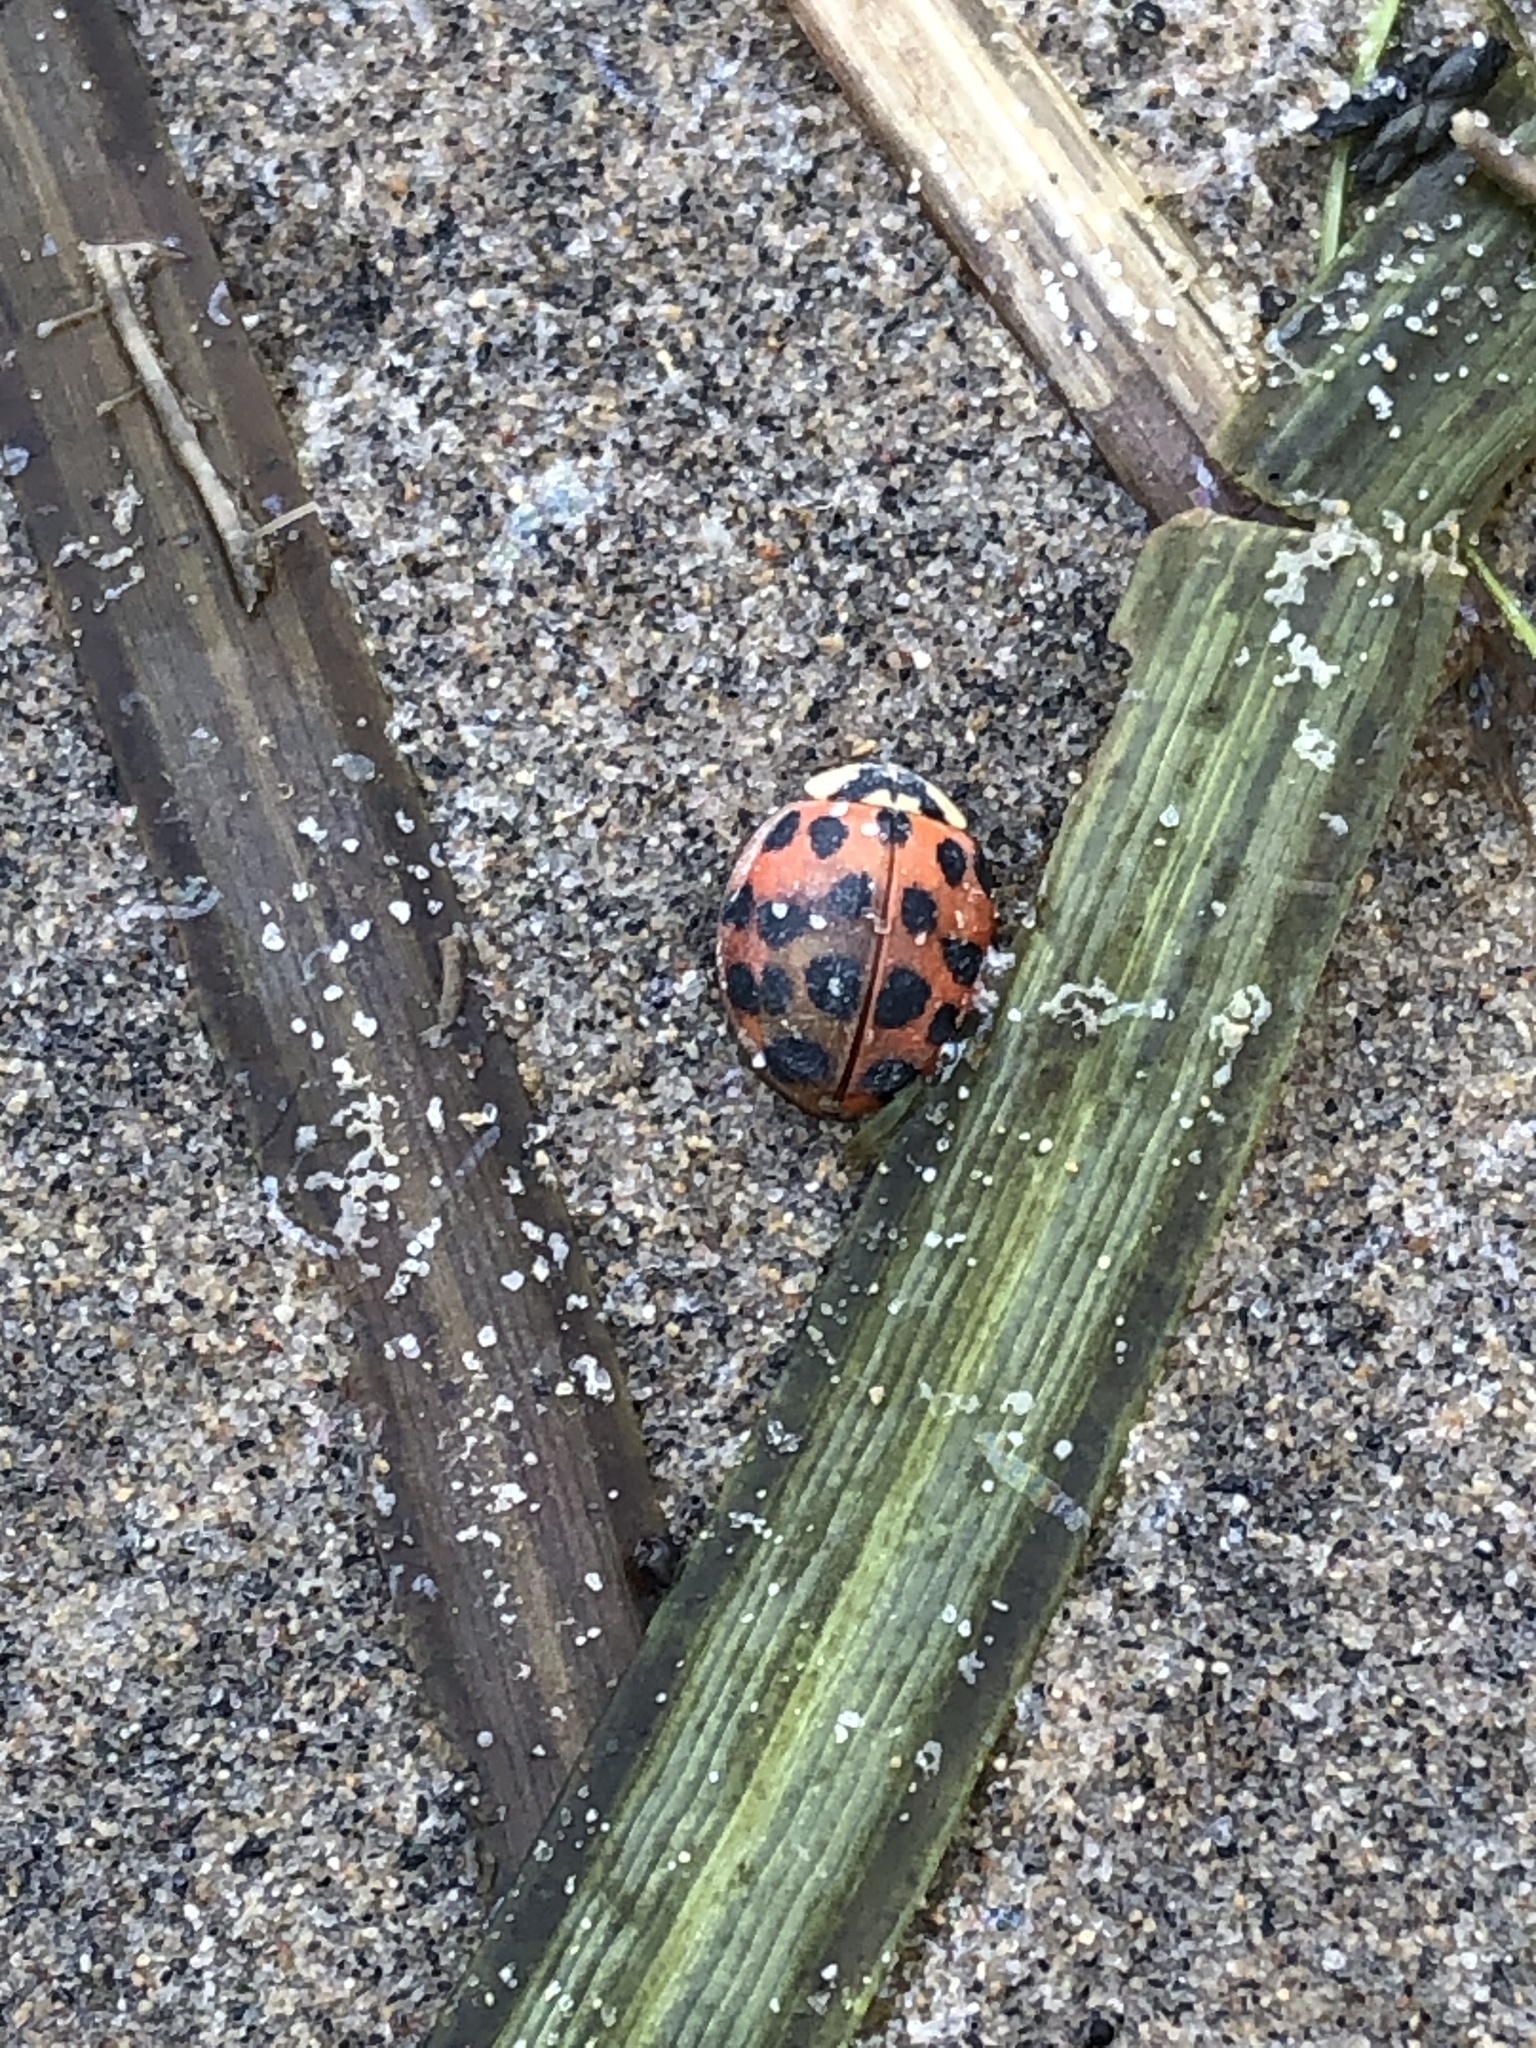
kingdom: Animalia
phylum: Arthropoda
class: Insecta
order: Coleoptera
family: Coccinellidae
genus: Harmonia
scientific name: Harmonia axyridis
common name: Harlequin ladybird
